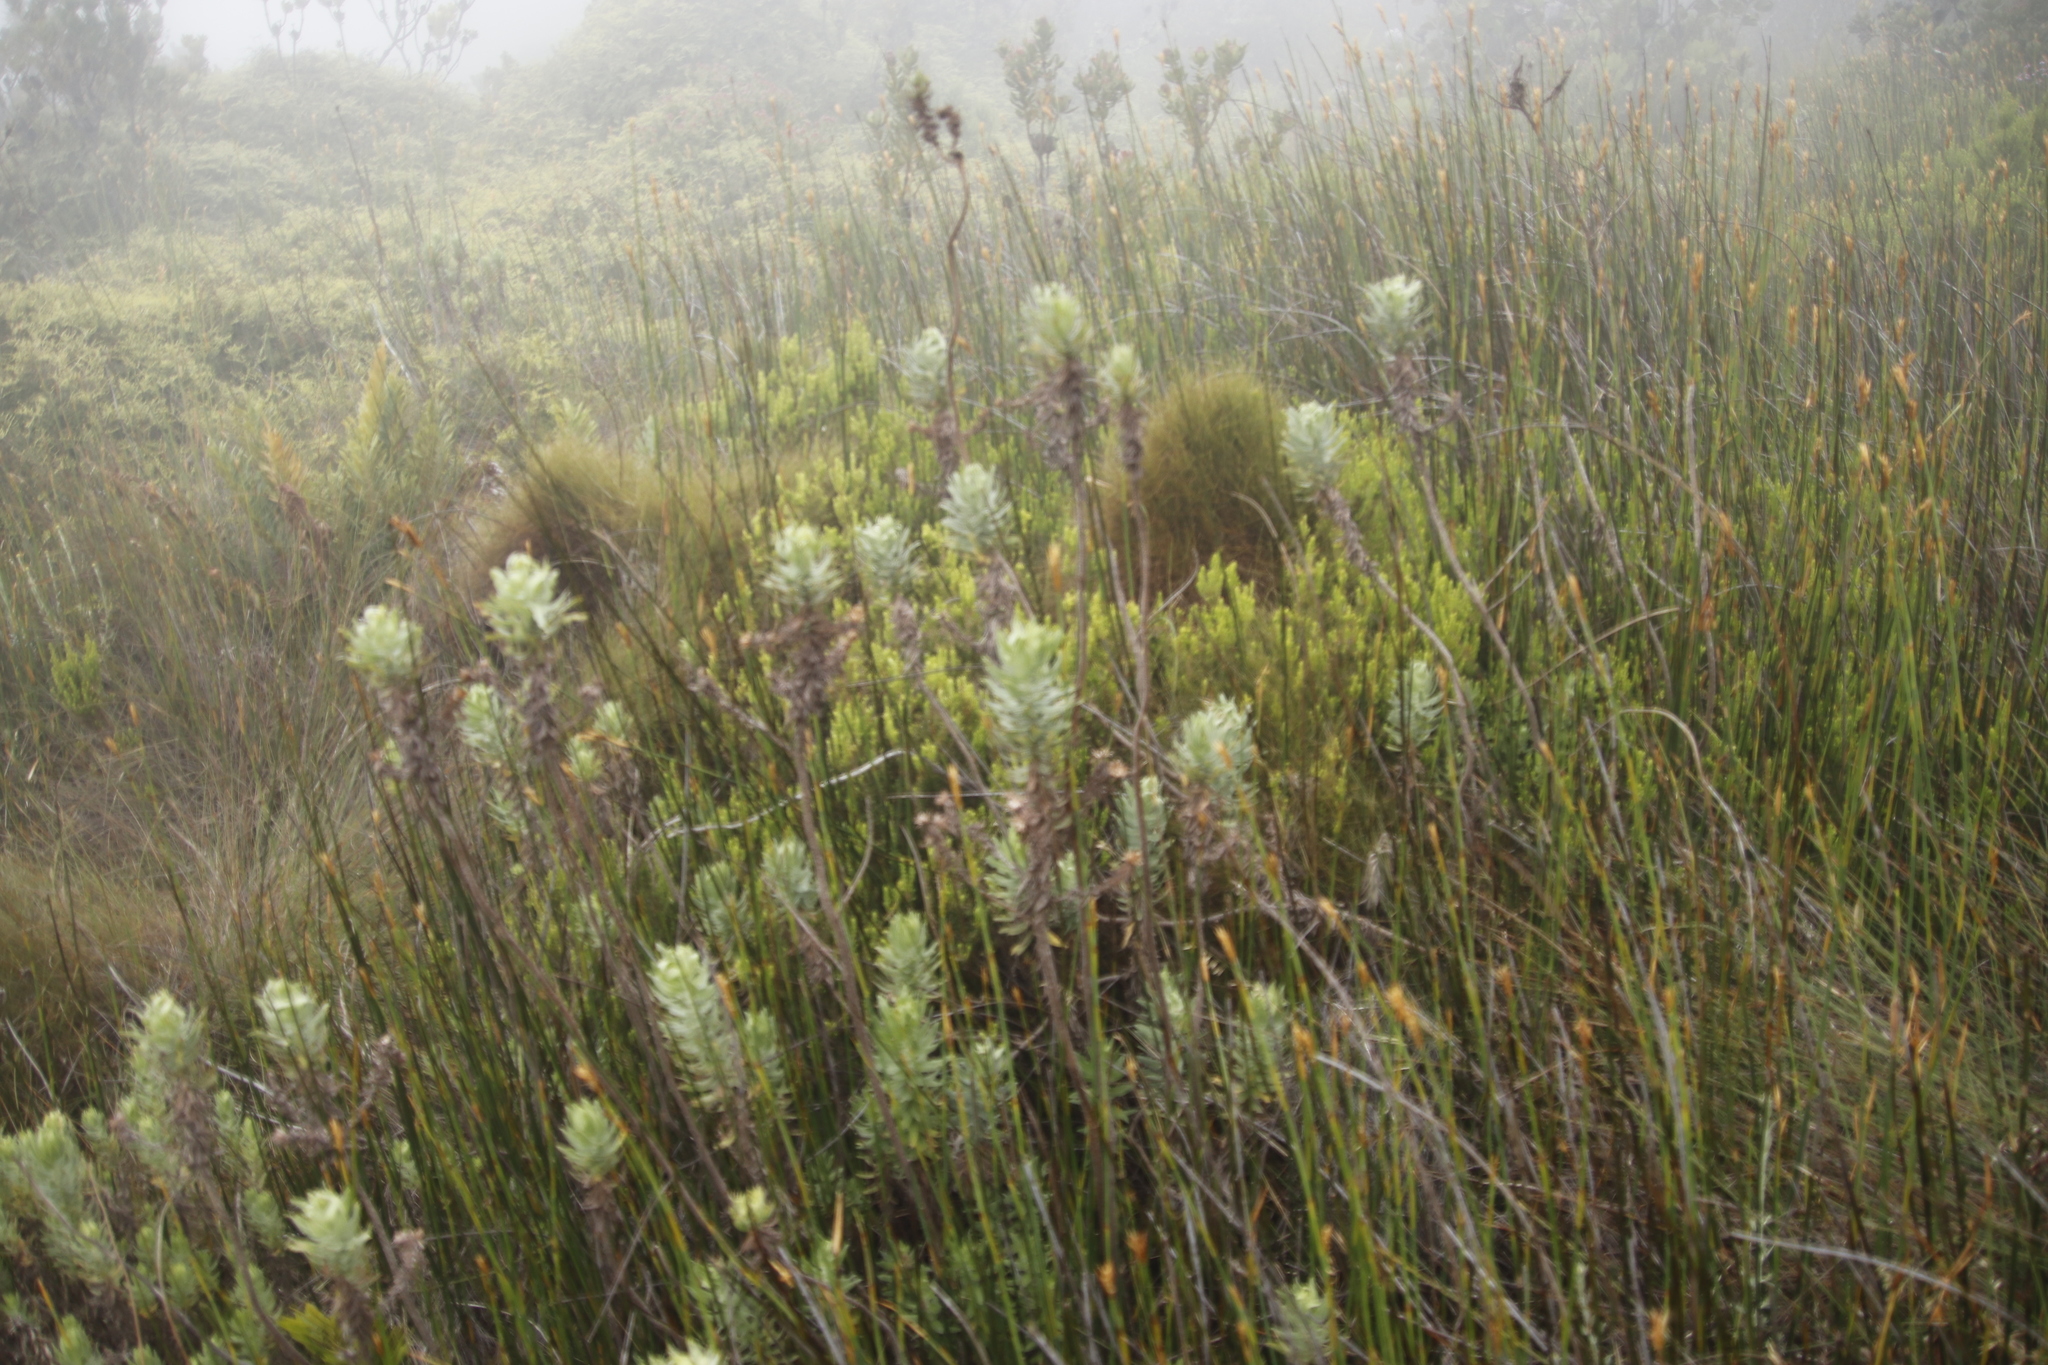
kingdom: Plantae
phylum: Tracheophyta
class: Magnoliopsida
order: Asterales
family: Asteraceae
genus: Osmitopsis
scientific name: Osmitopsis asteriscoides
